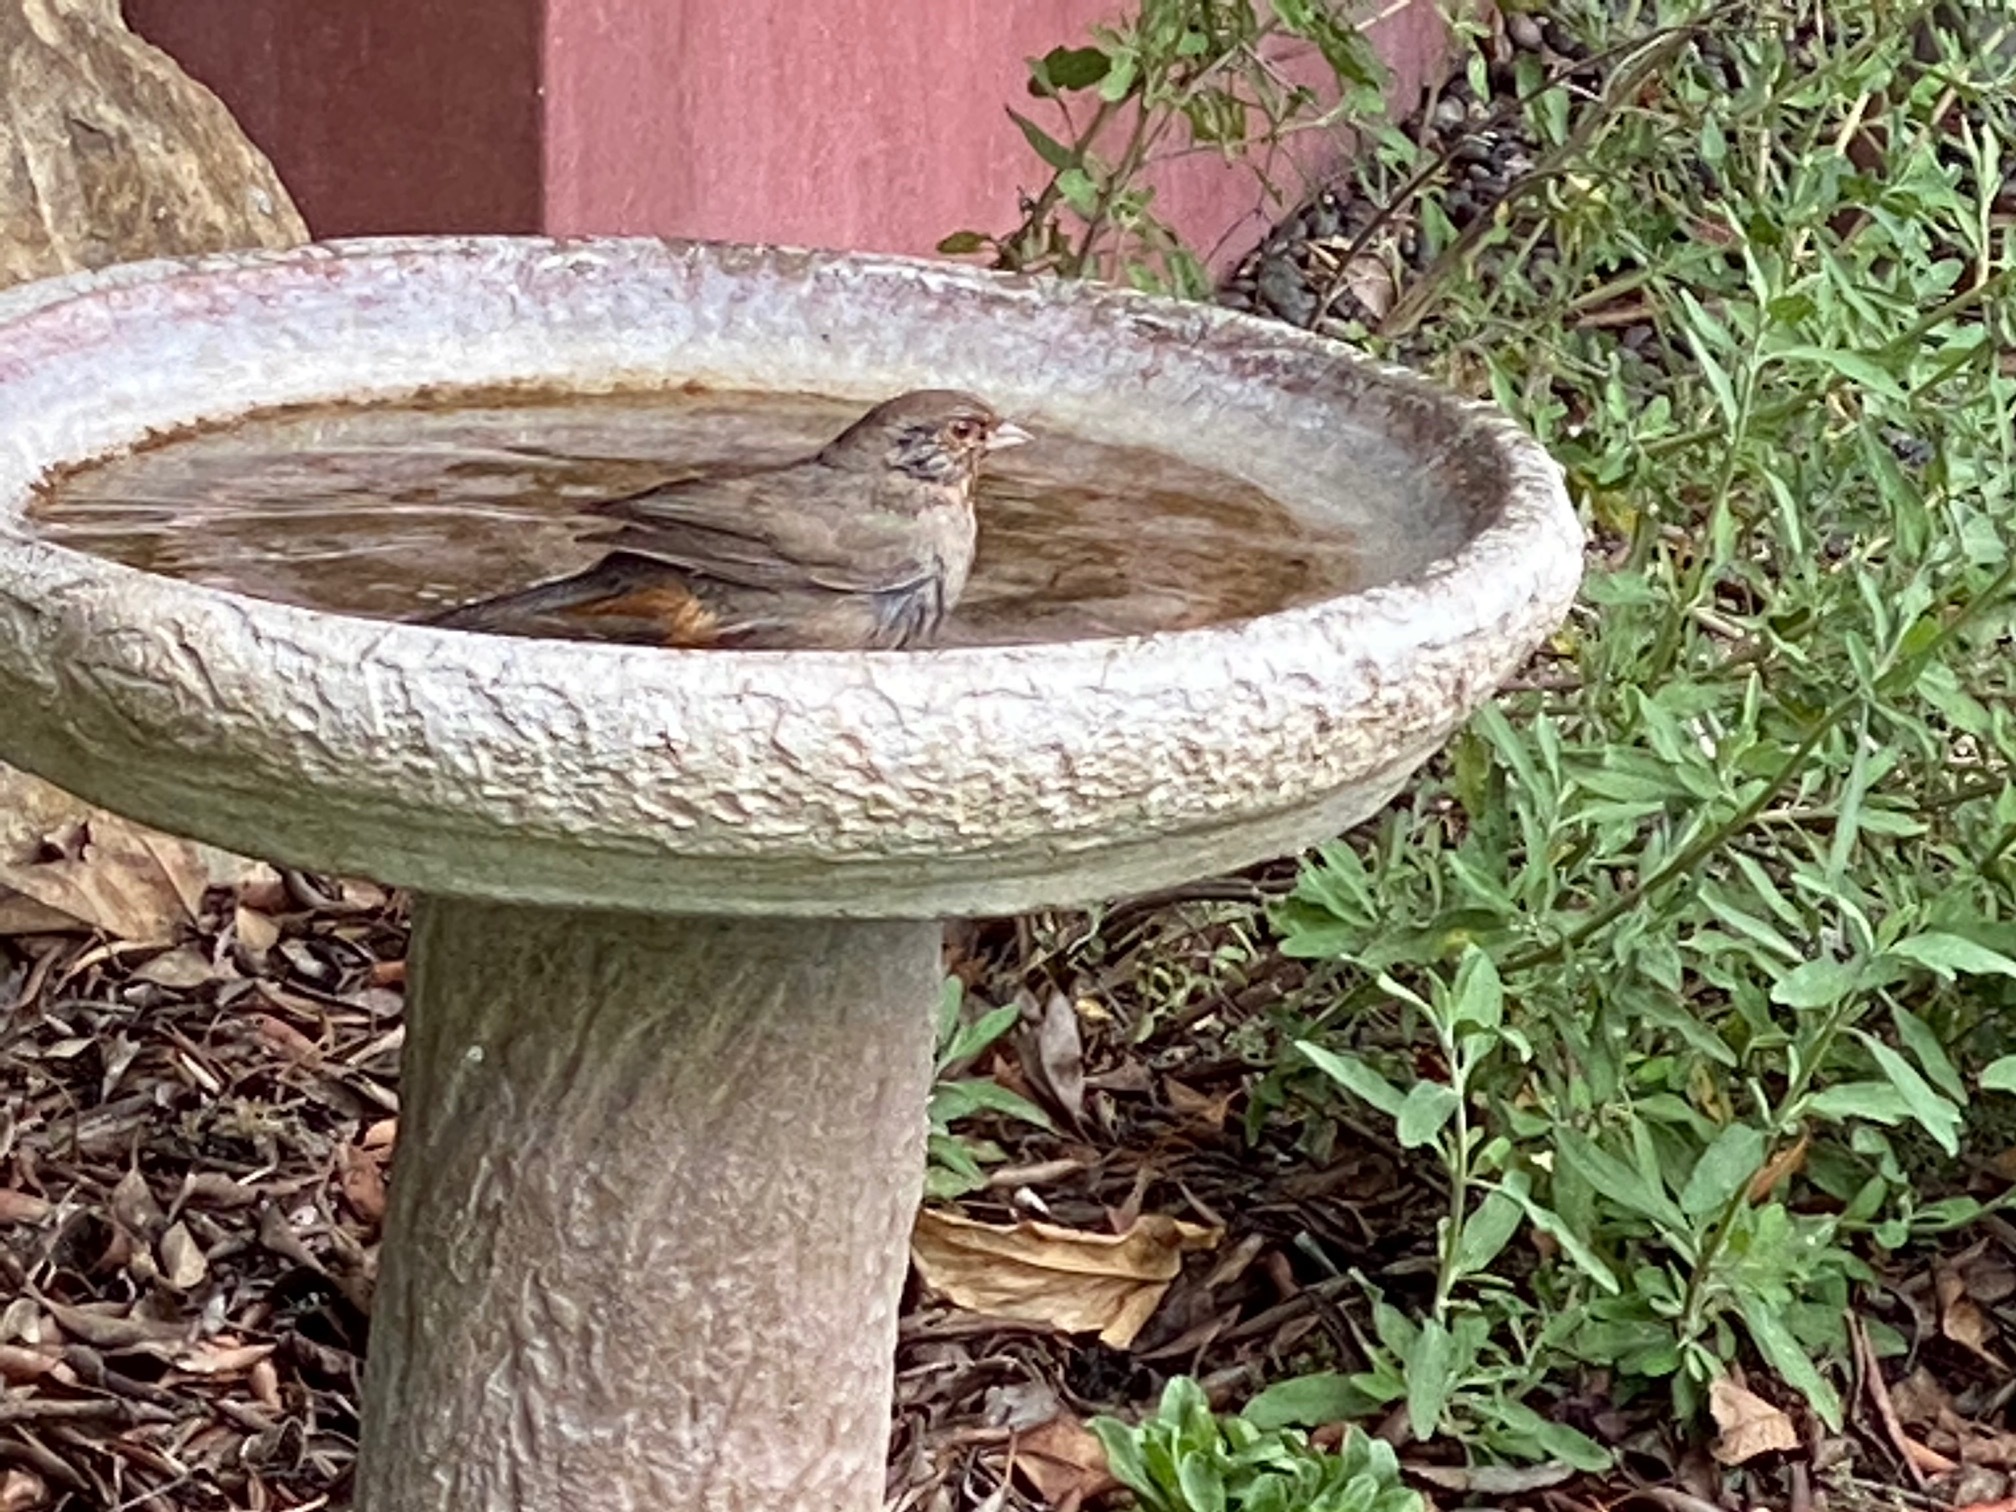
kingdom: Animalia
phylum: Chordata
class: Aves
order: Passeriformes
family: Passerellidae
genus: Melozone
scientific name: Melozone crissalis
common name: California towhee
